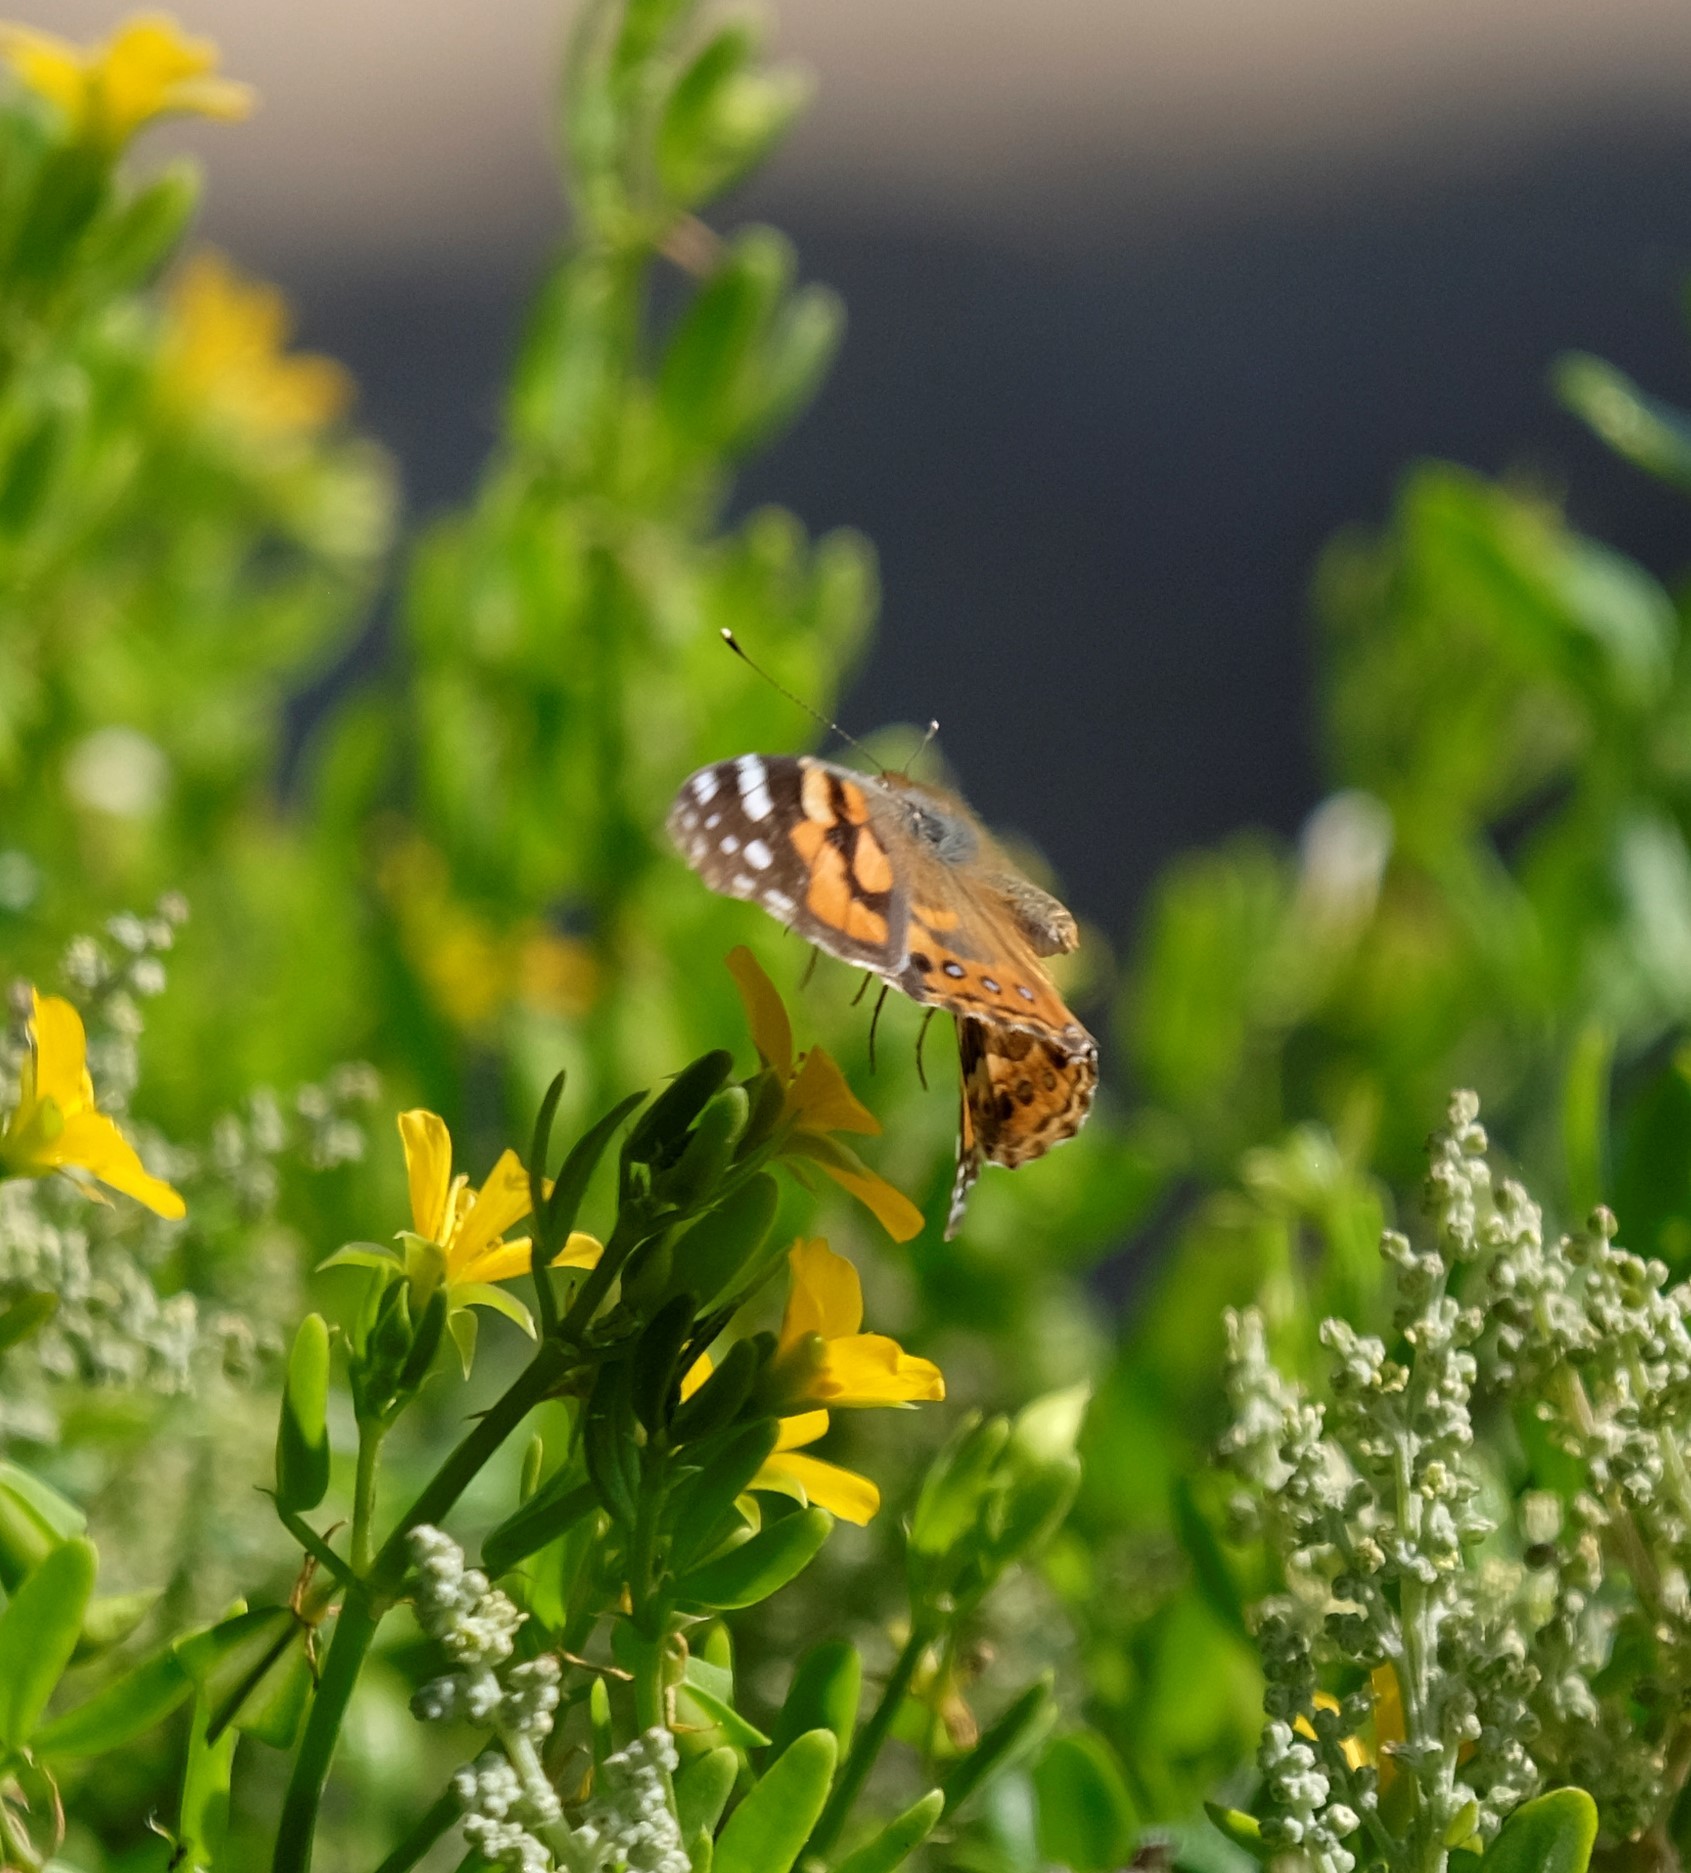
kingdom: Animalia
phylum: Arthropoda
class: Insecta
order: Lepidoptera
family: Nymphalidae
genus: Vanessa
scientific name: Vanessa kershawi
